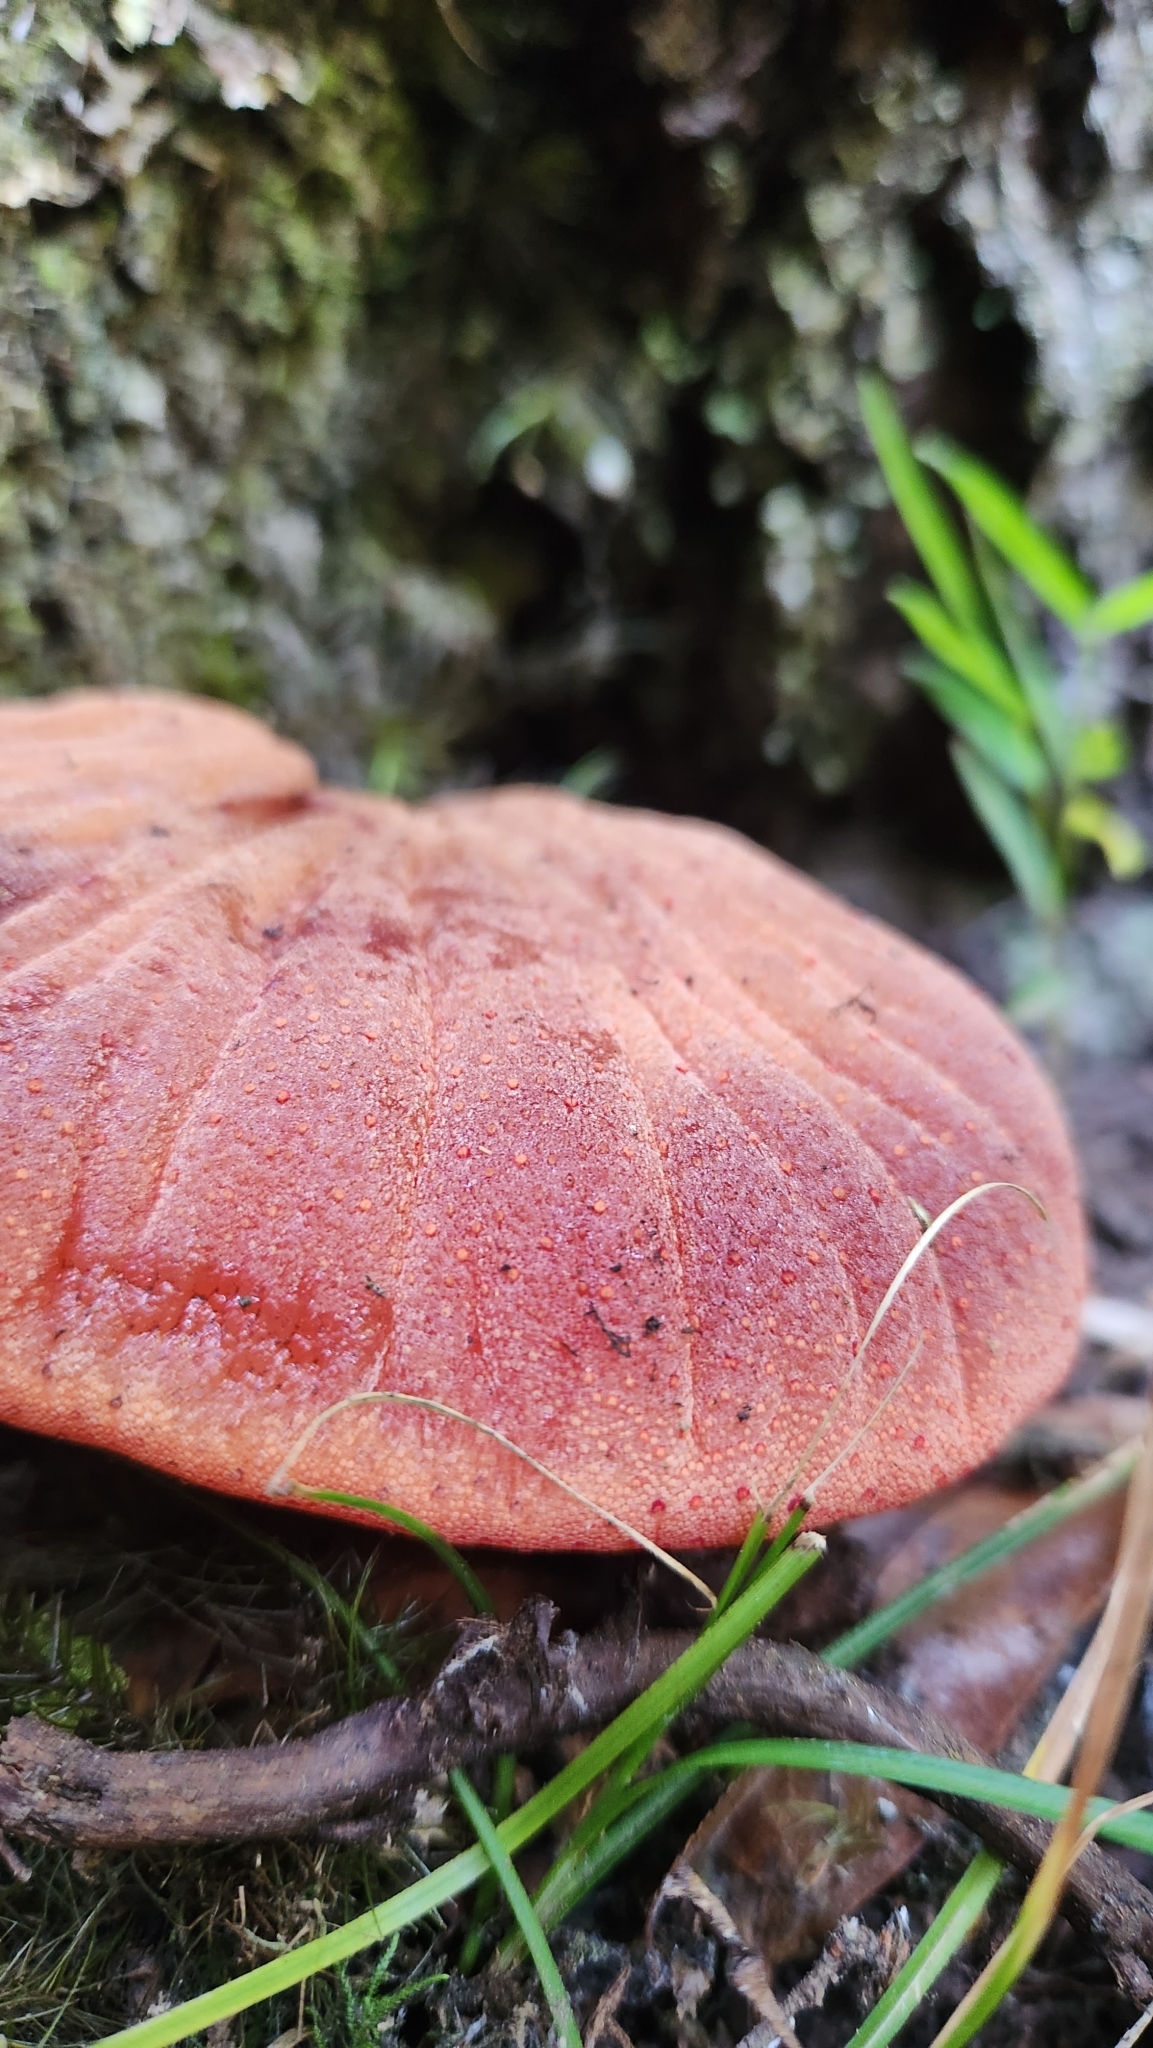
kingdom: Fungi
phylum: Basidiomycota
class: Agaricomycetes
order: Agaricales
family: Fistulinaceae
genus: Fistulina
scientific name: Fistulina antarctica
